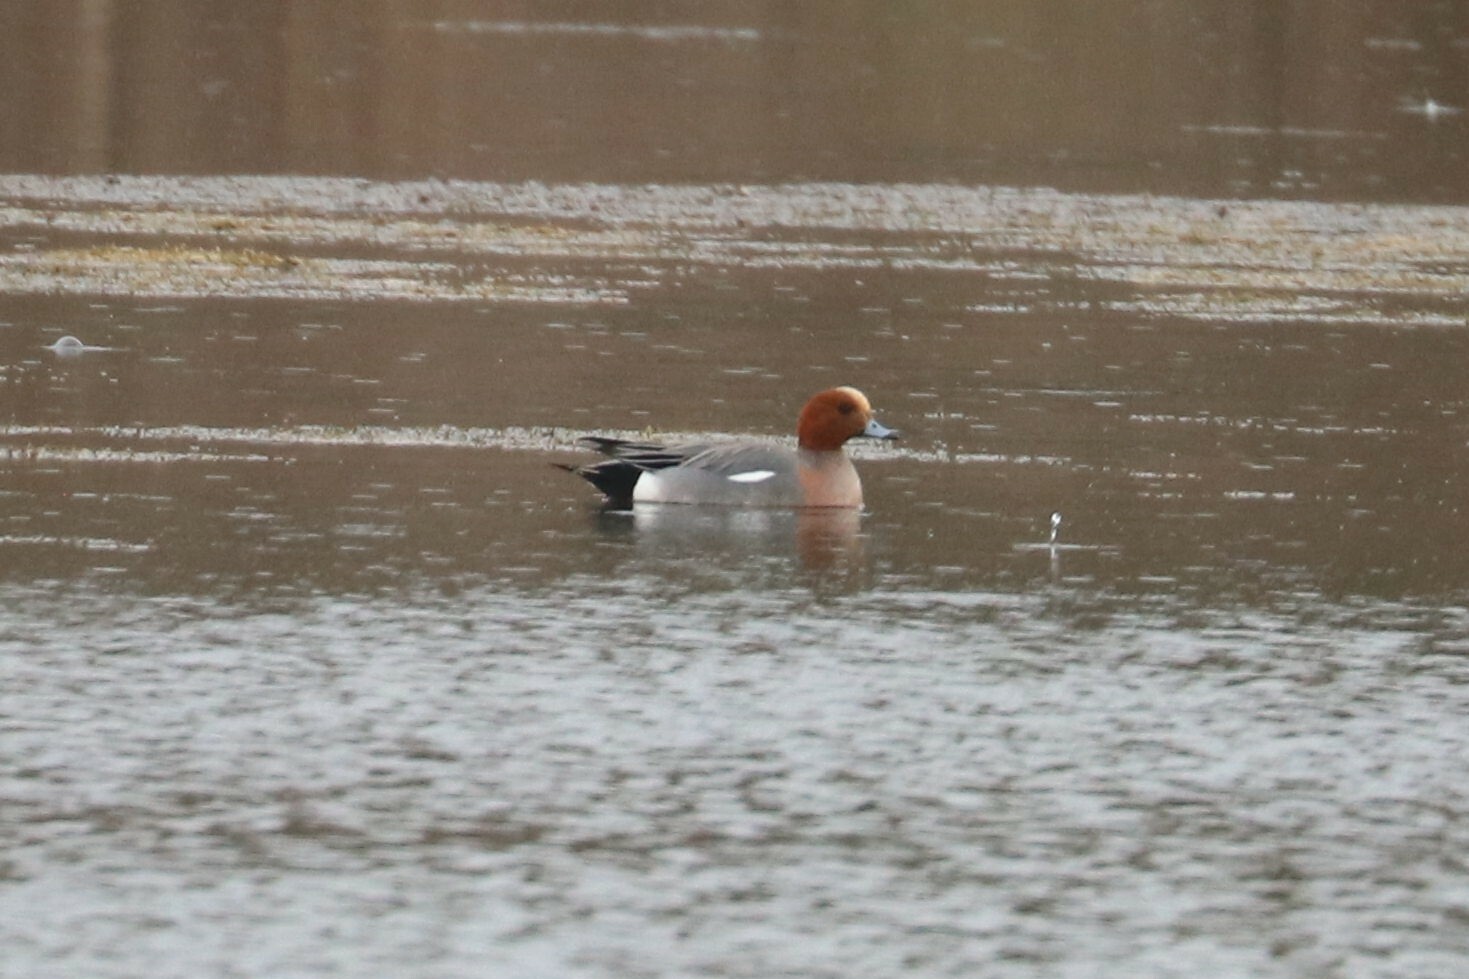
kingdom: Animalia
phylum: Chordata
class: Aves
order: Anseriformes
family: Anatidae
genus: Mareca
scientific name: Mareca penelope
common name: Eurasian wigeon
